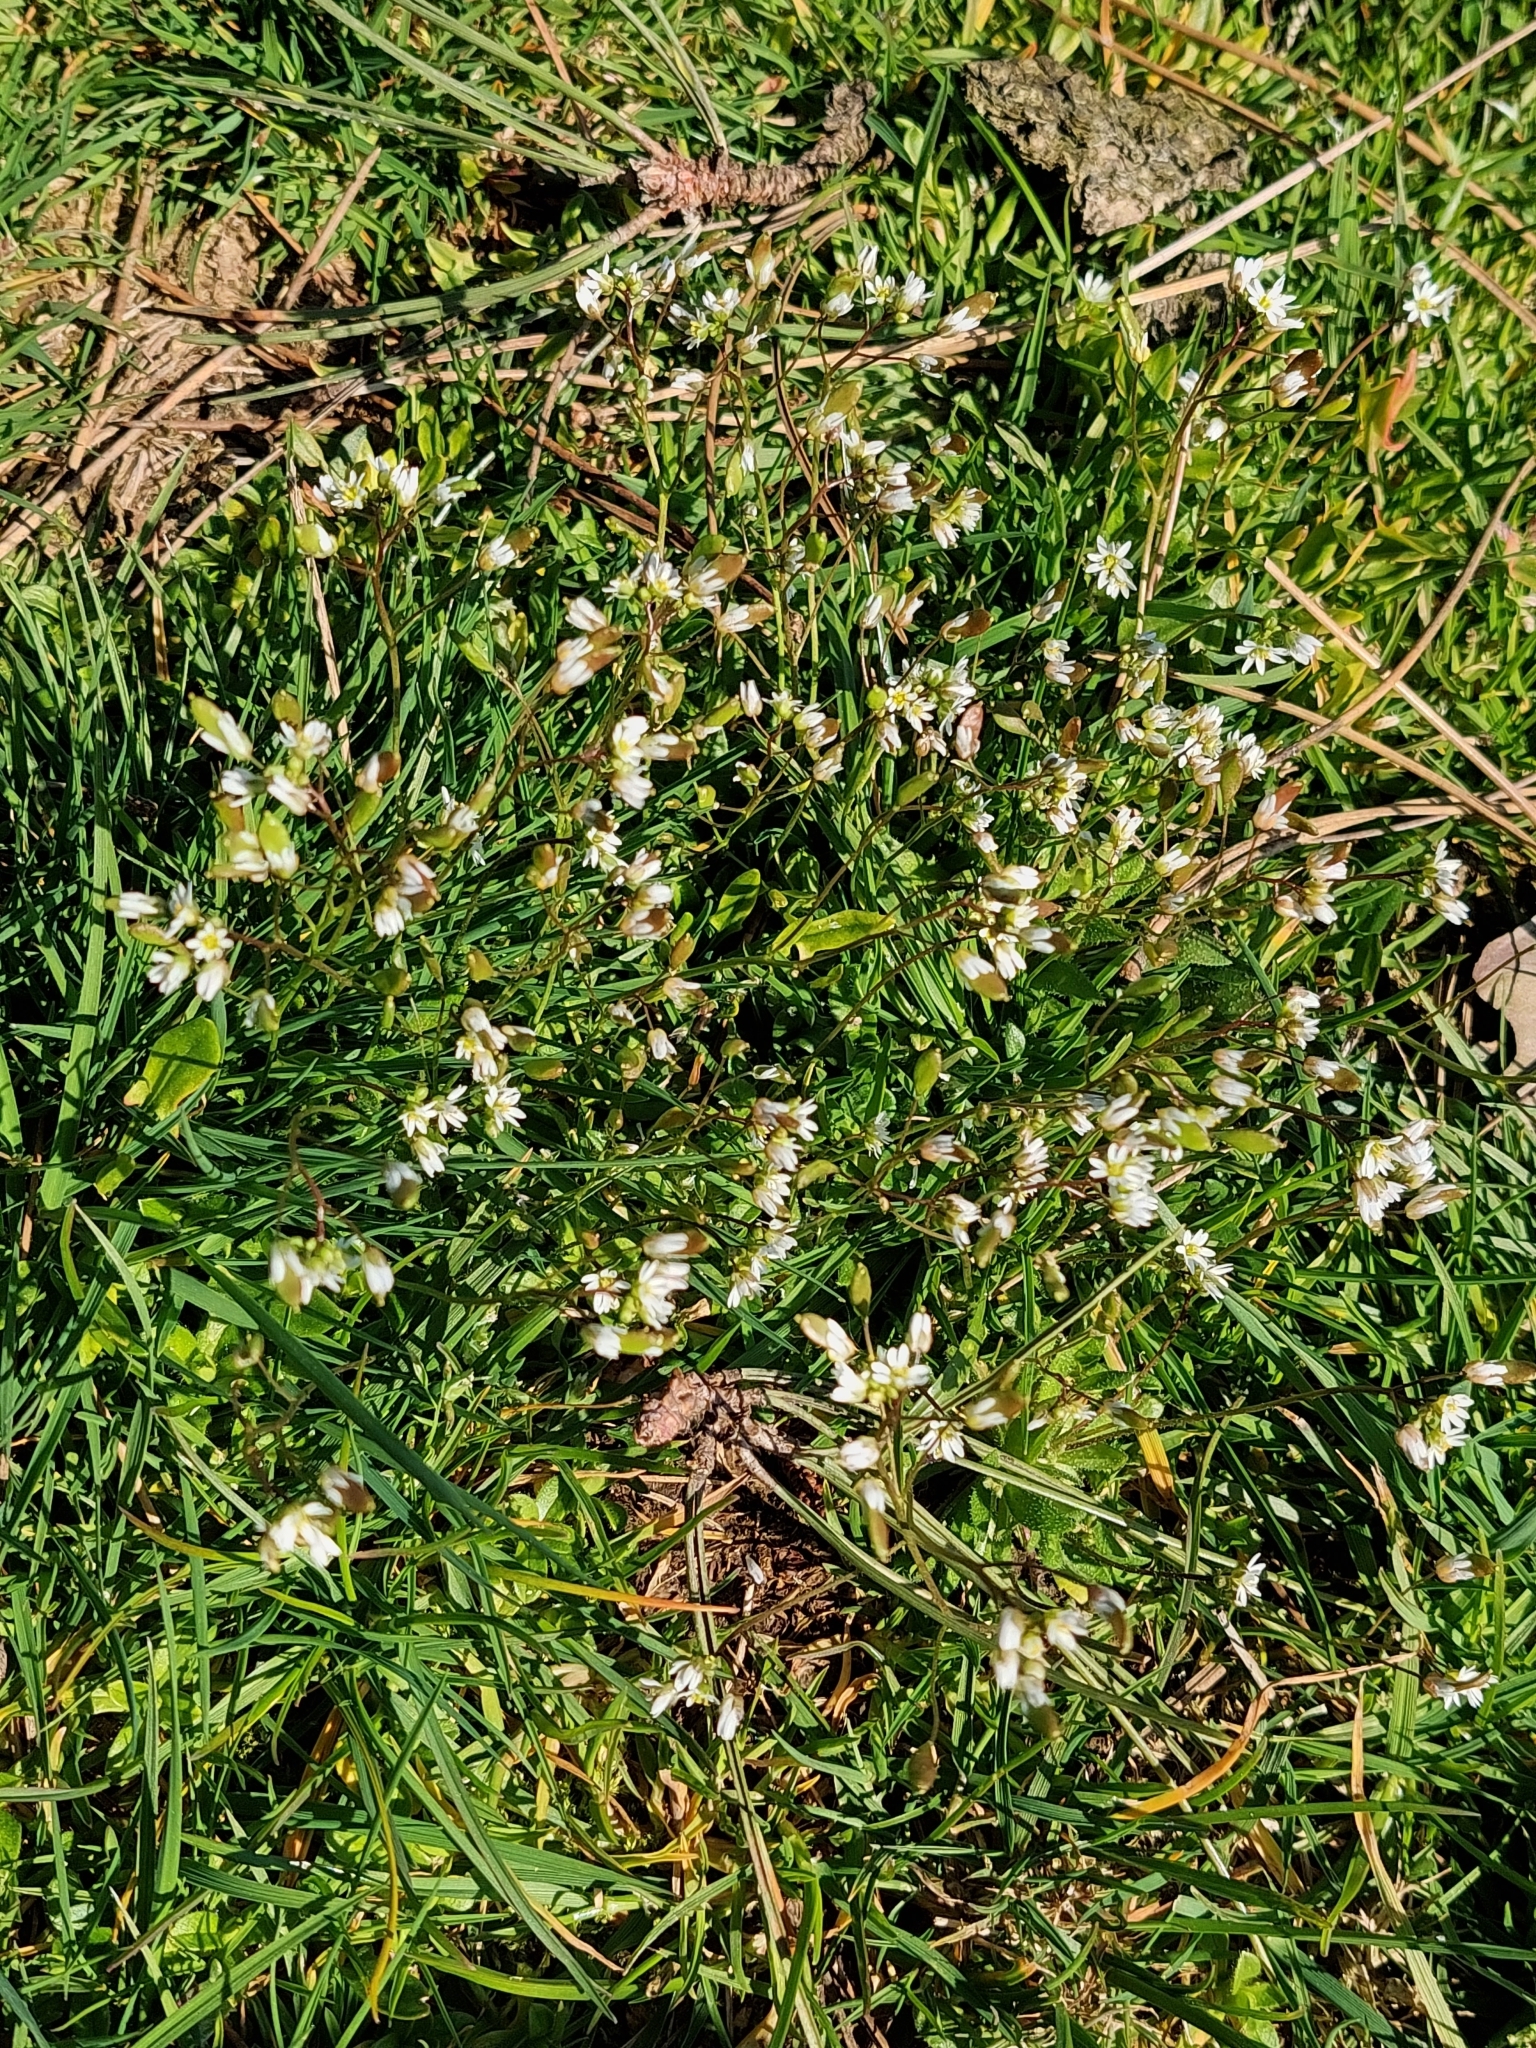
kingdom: Plantae
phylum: Tracheophyta
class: Magnoliopsida
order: Brassicales
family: Brassicaceae
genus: Draba
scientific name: Draba verna
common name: Spring draba
